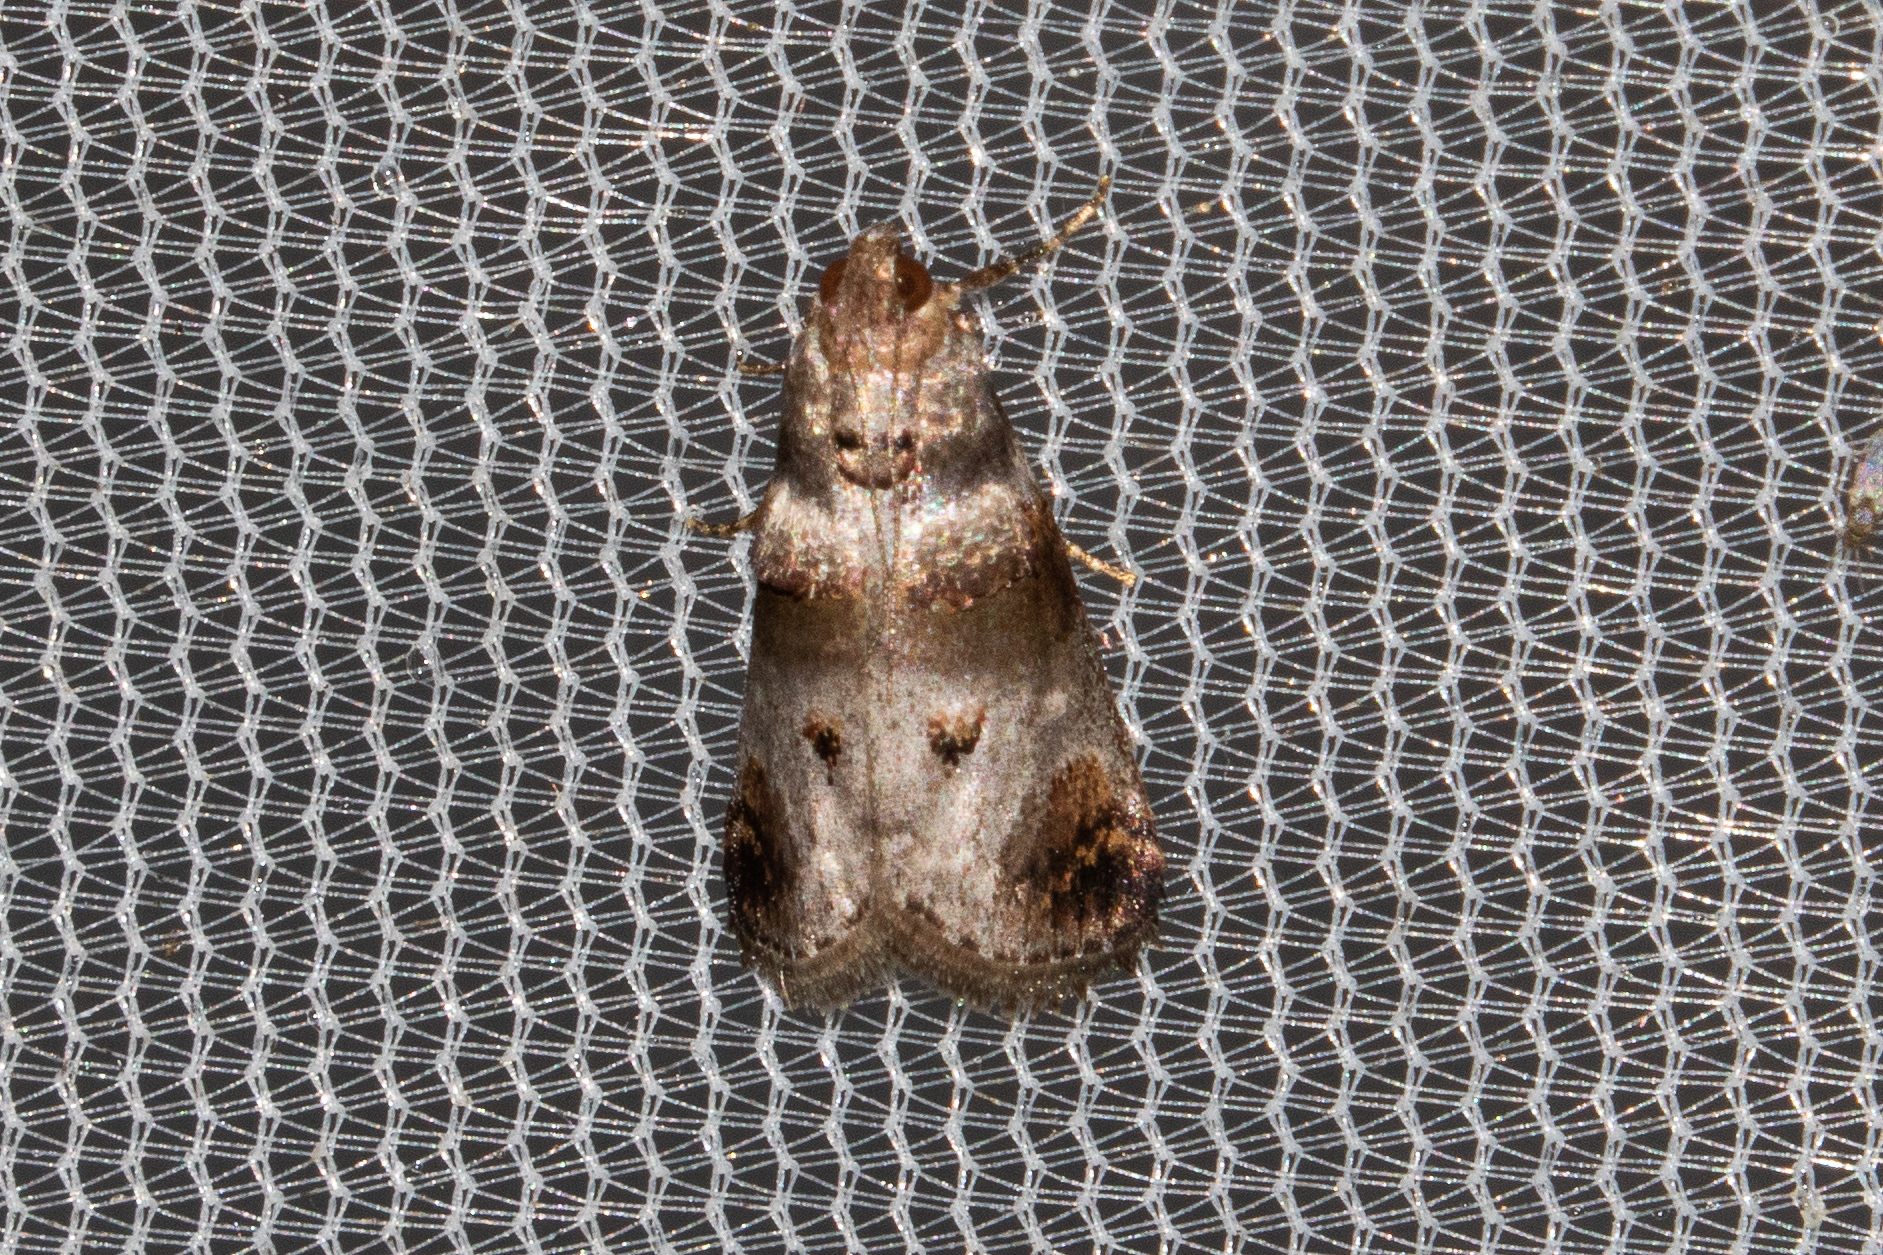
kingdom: Animalia
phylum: Arthropoda
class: Insecta
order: Lepidoptera
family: Pyralidae
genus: Oneida
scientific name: Oneida lunulalis
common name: Orange-tufted oneida moth
